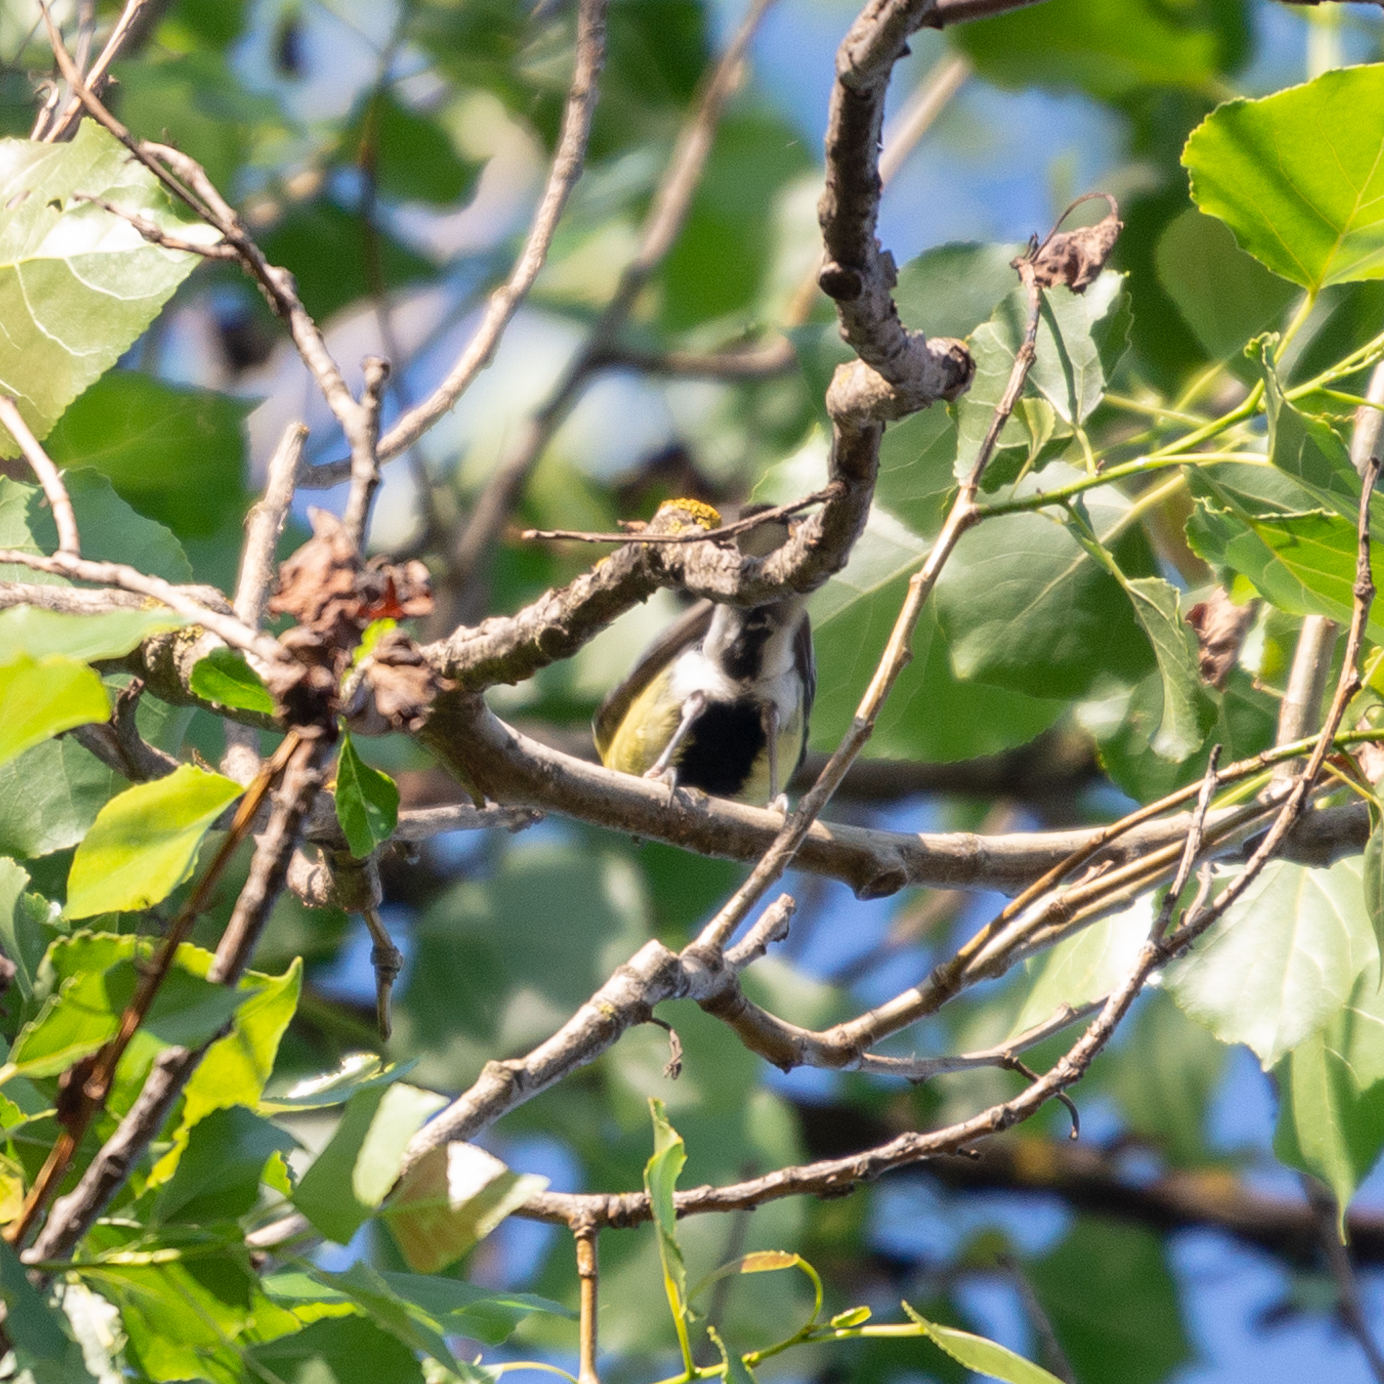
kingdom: Animalia
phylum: Chordata
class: Aves
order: Passeriformes
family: Paridae
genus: Parus
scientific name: Parus major
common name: Great tit
